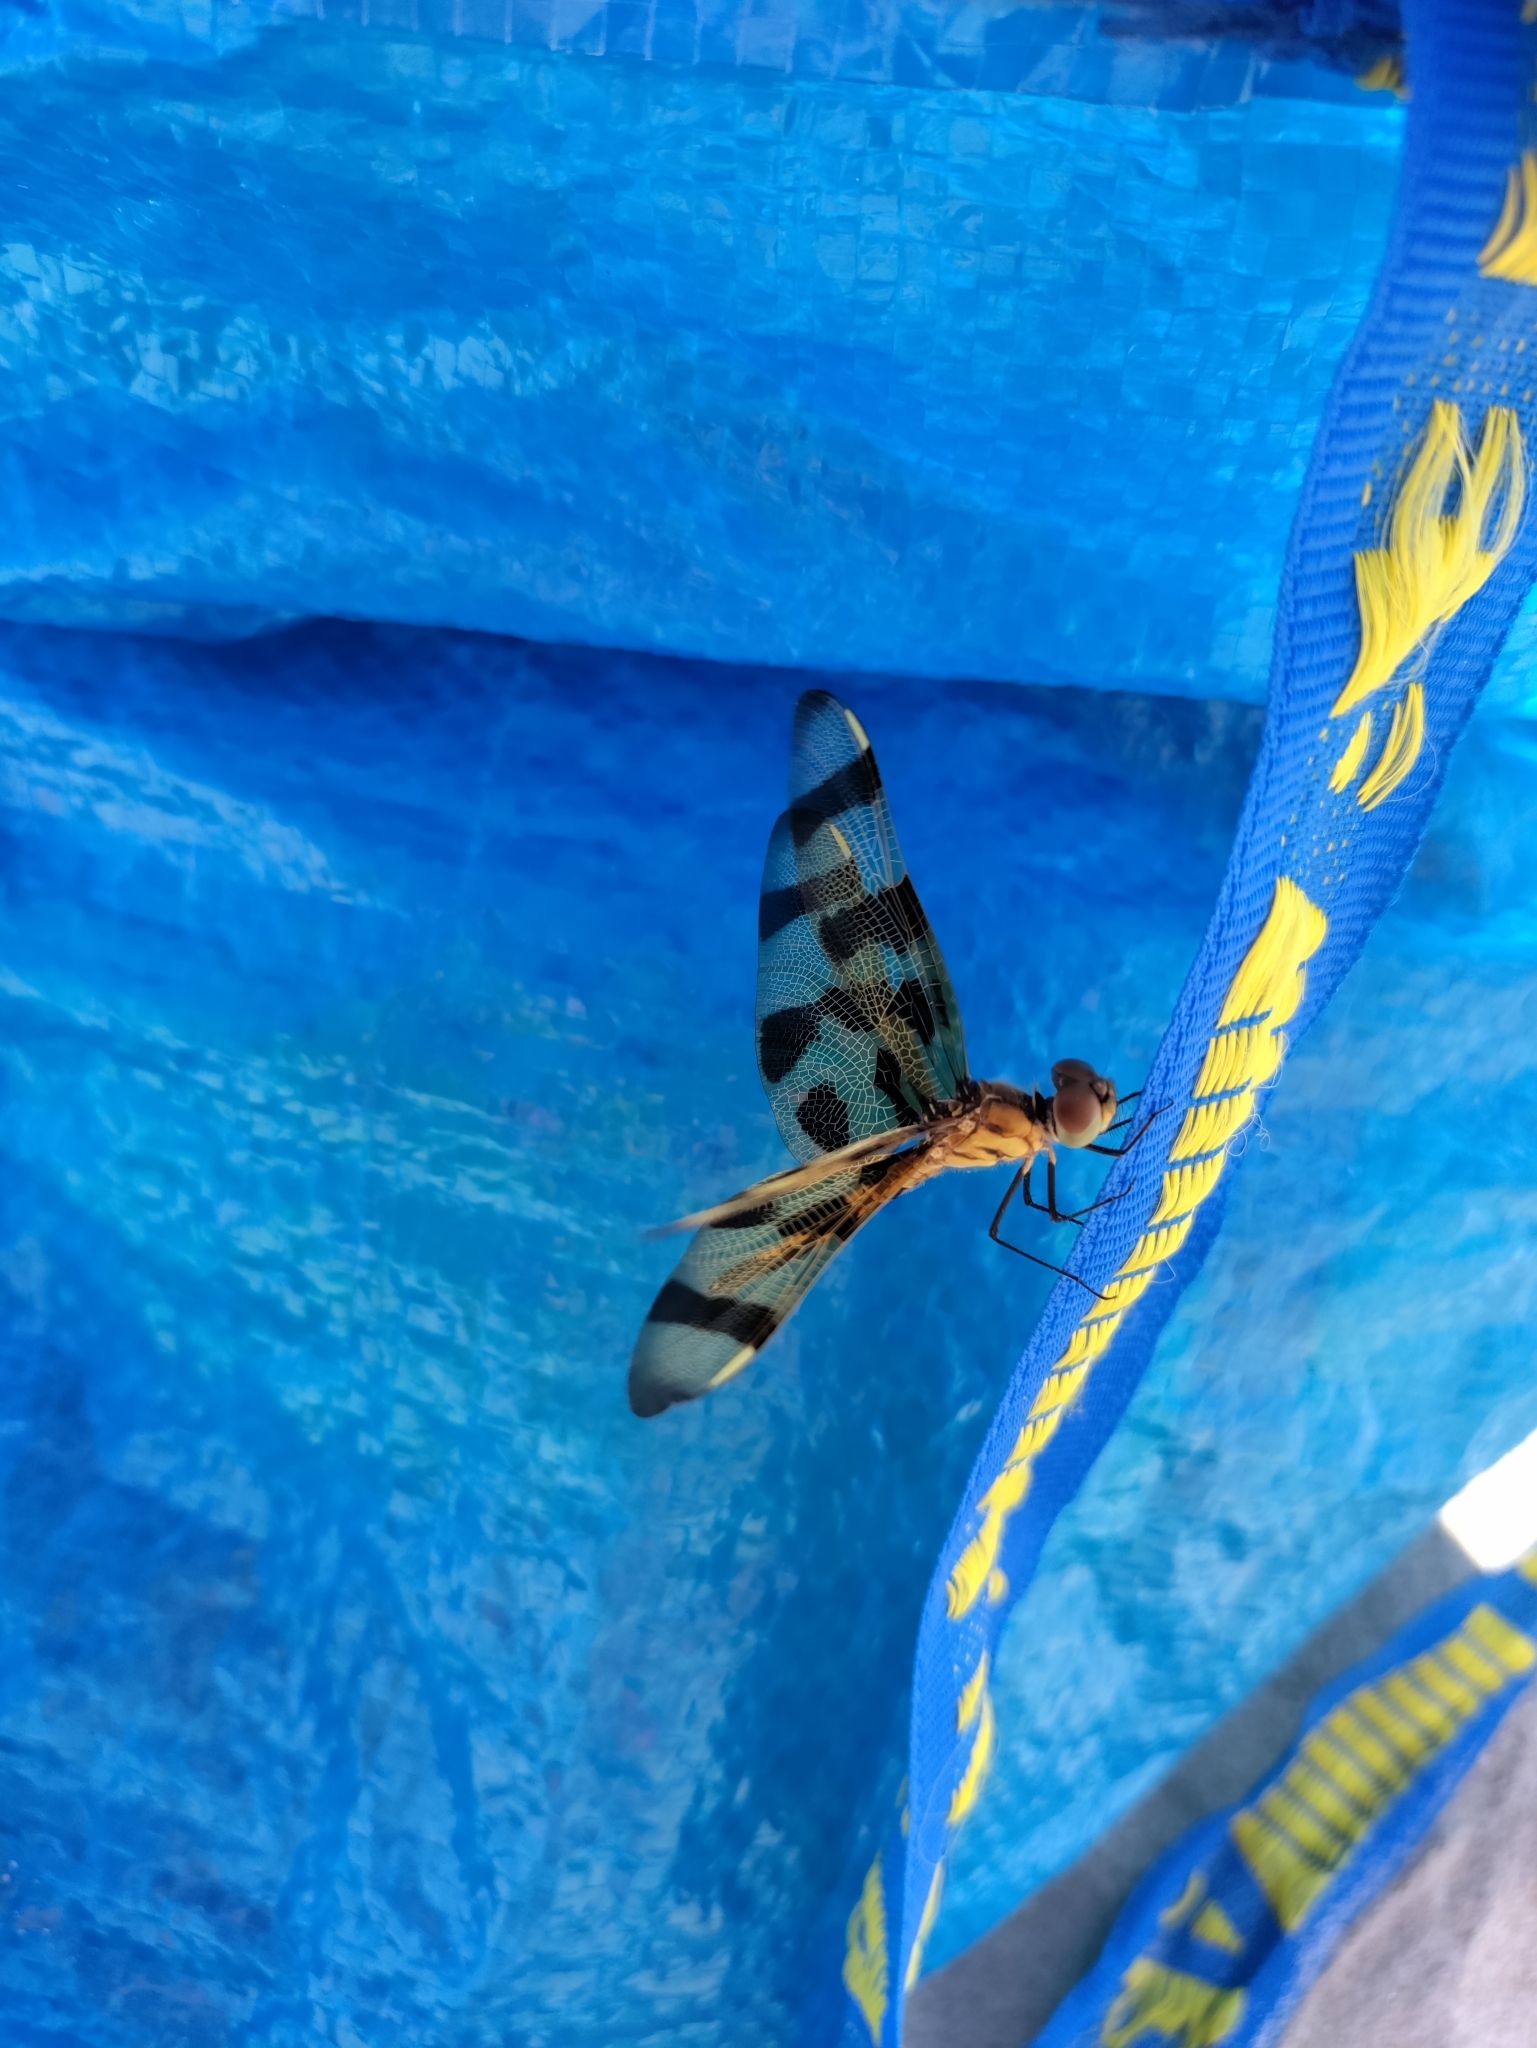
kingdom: Animalia
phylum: Arthropoda
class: Insecta
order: Odonata
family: Libellulidae
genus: Celithemis
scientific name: Celithemis eponina
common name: Halloween pennant
